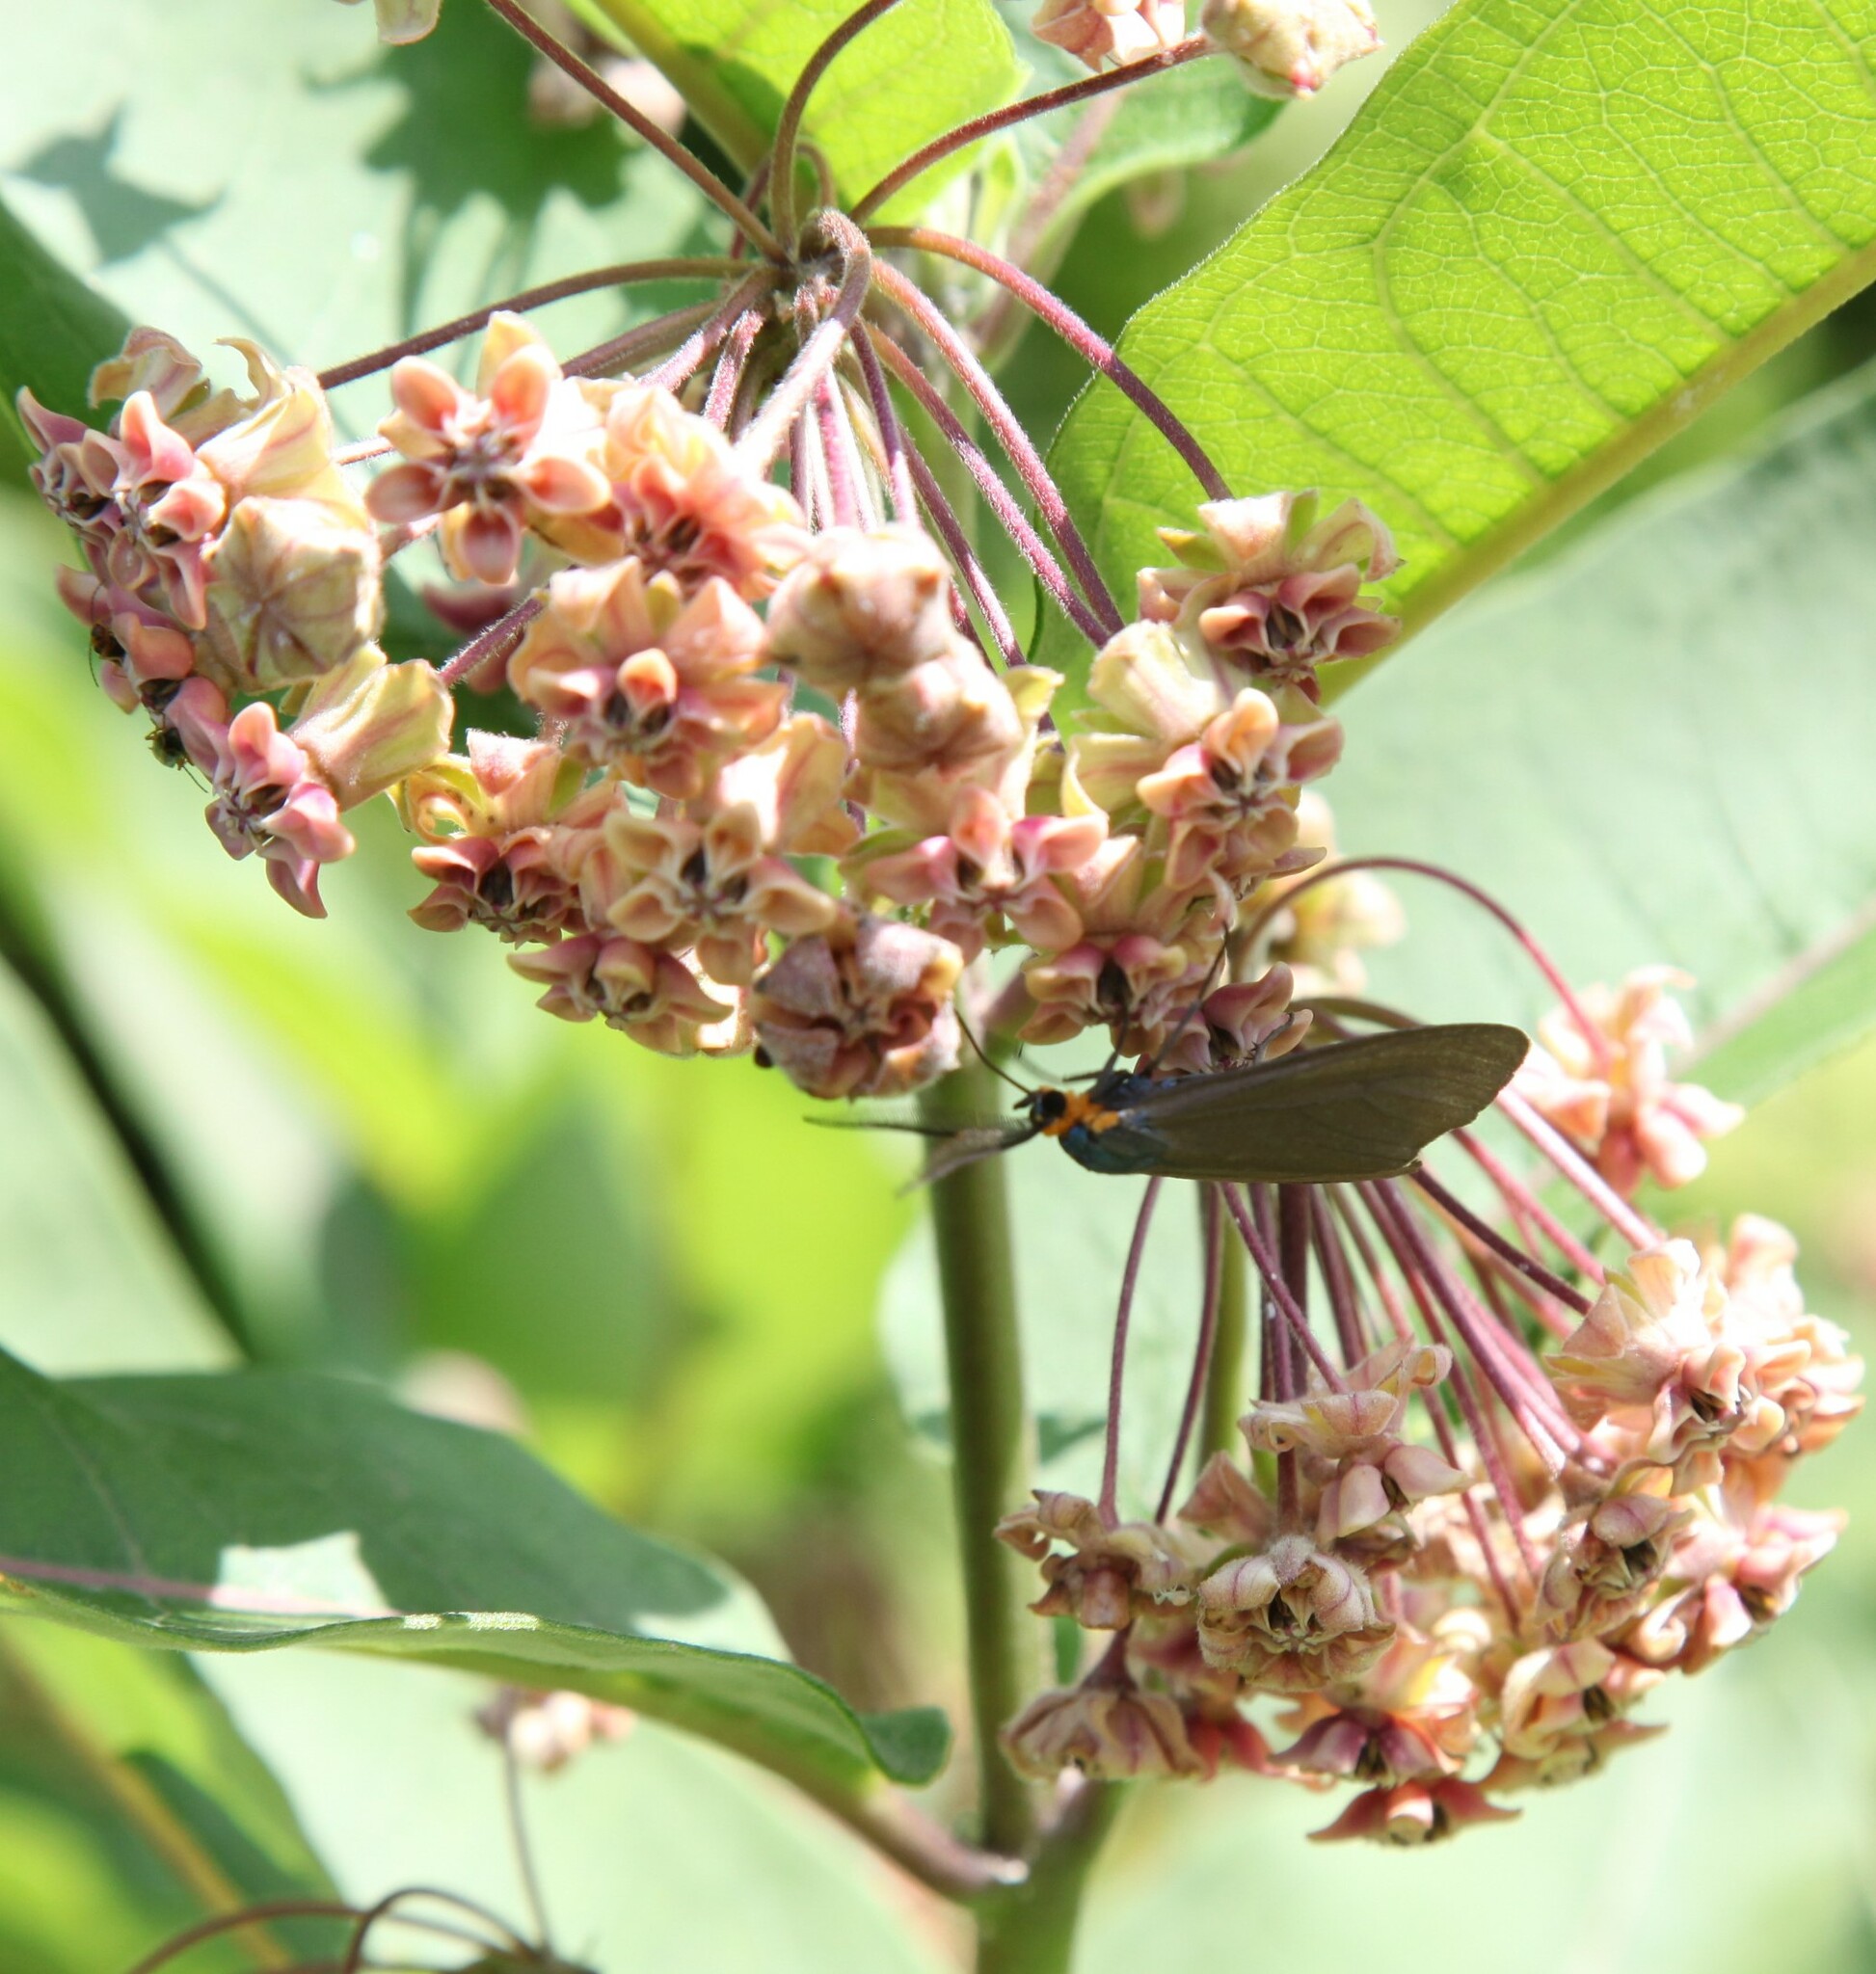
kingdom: Animalia
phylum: Arthropoda
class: Insecta
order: Lepidoptera
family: Erebidae
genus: Ctenucha
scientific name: Ctenucha virginica
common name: Virginia ctenucha moth
